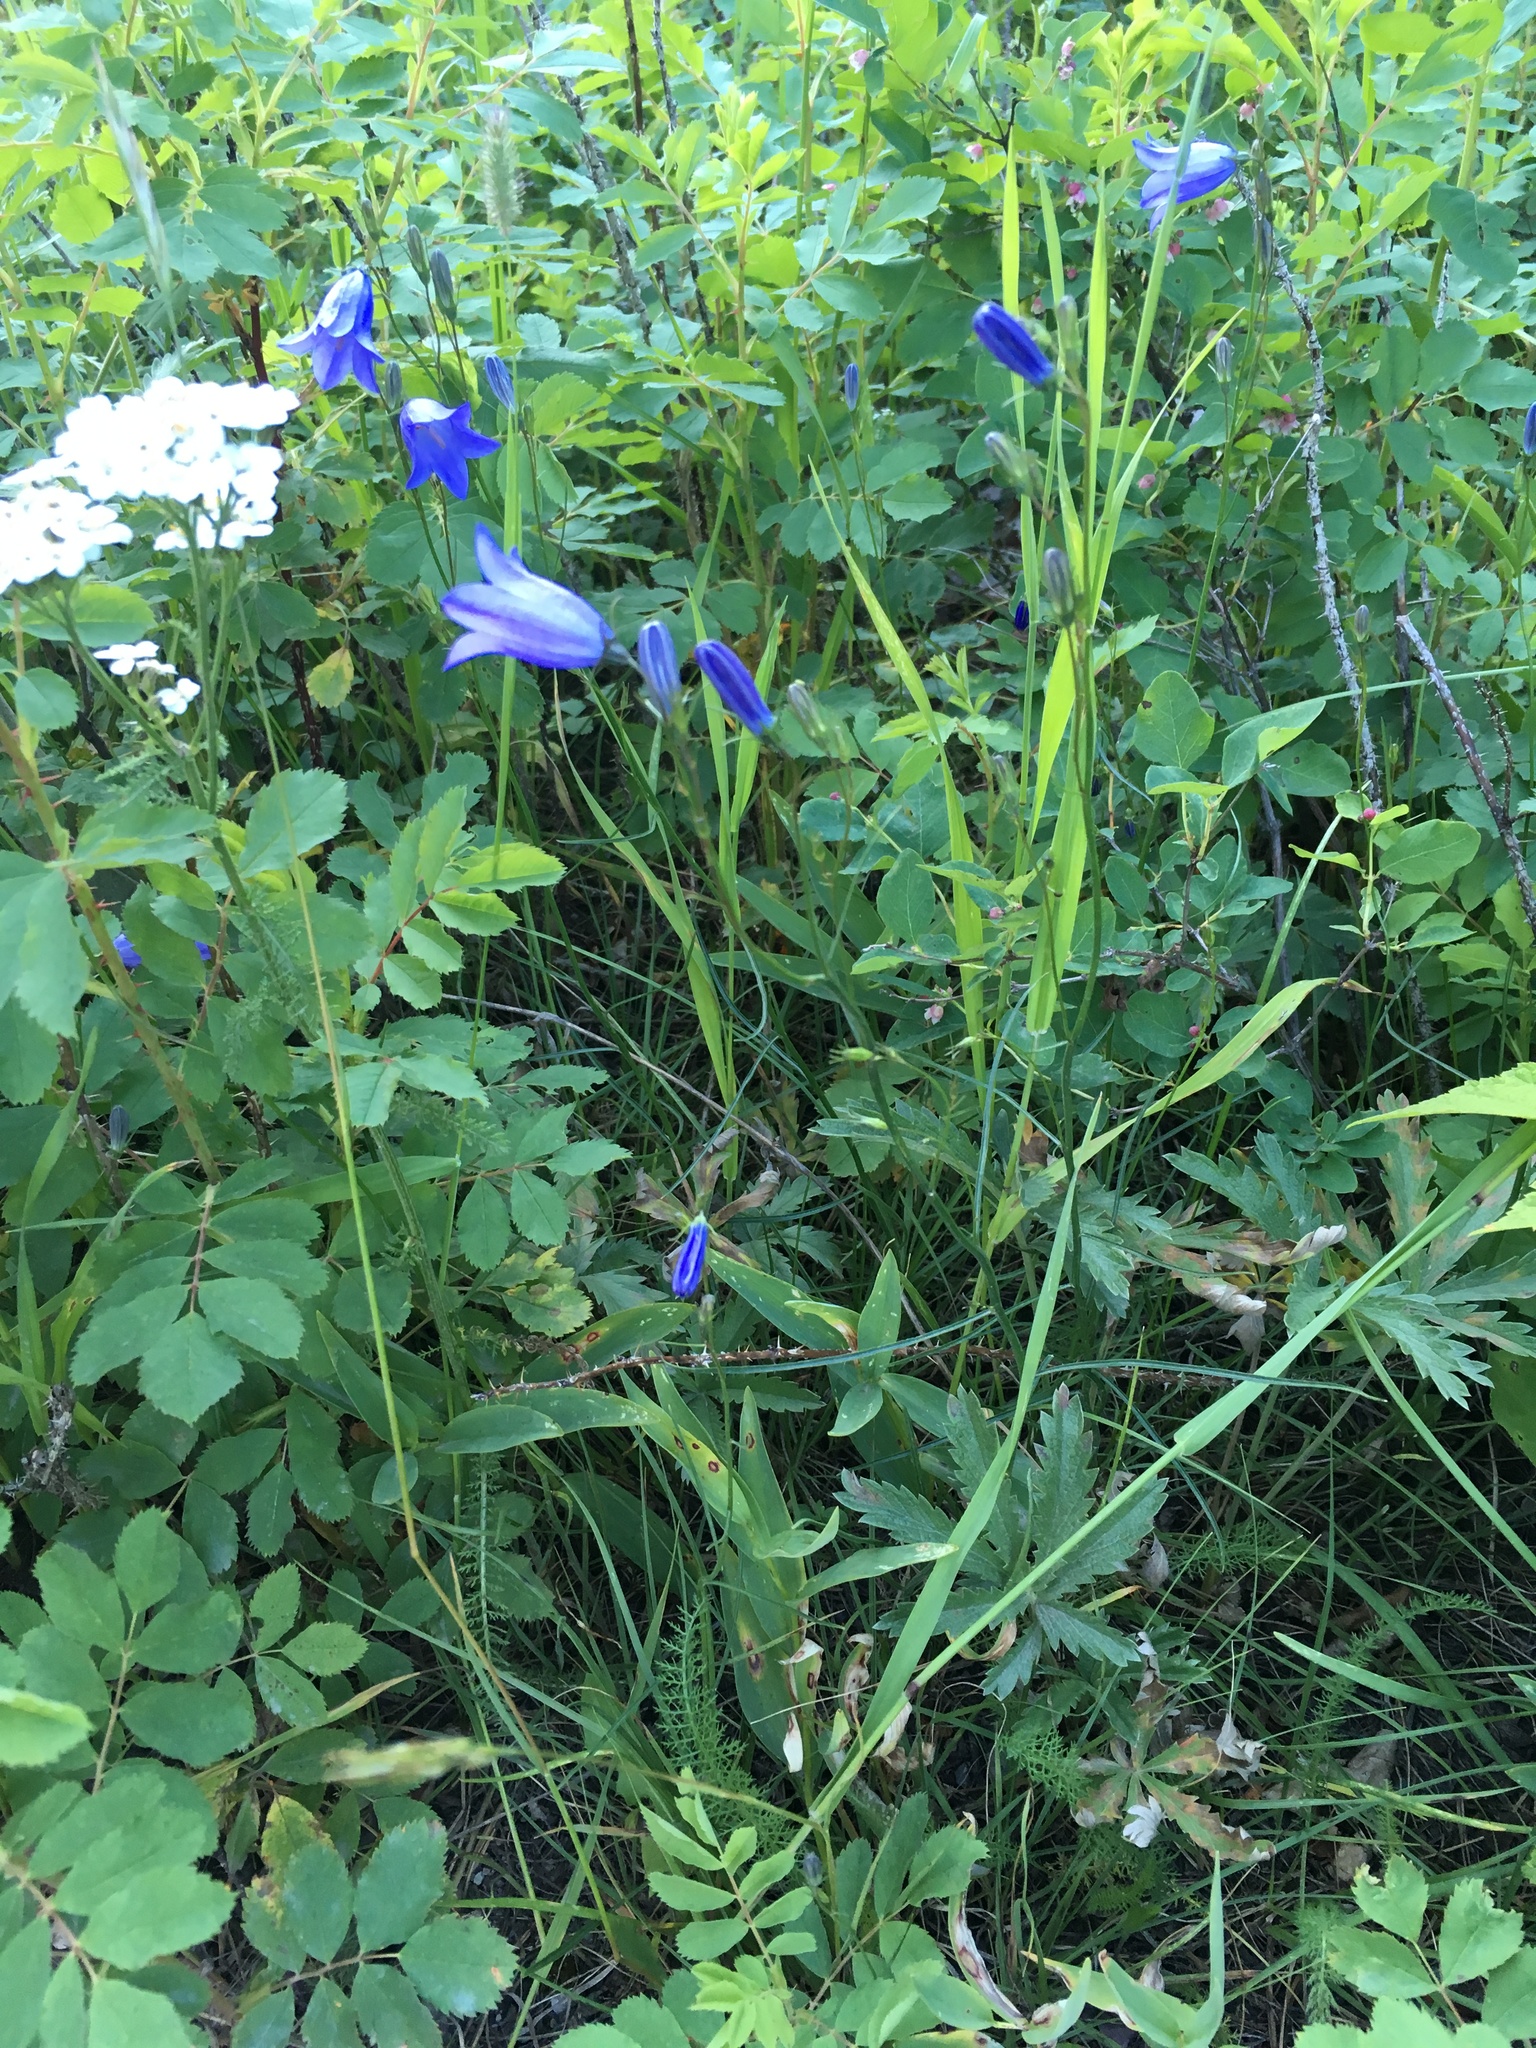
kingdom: Plantae
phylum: Tracheophyta
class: Magnoliopsida
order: Asterales
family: Campanulaceae
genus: Campanula
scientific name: Campanula petiolata
